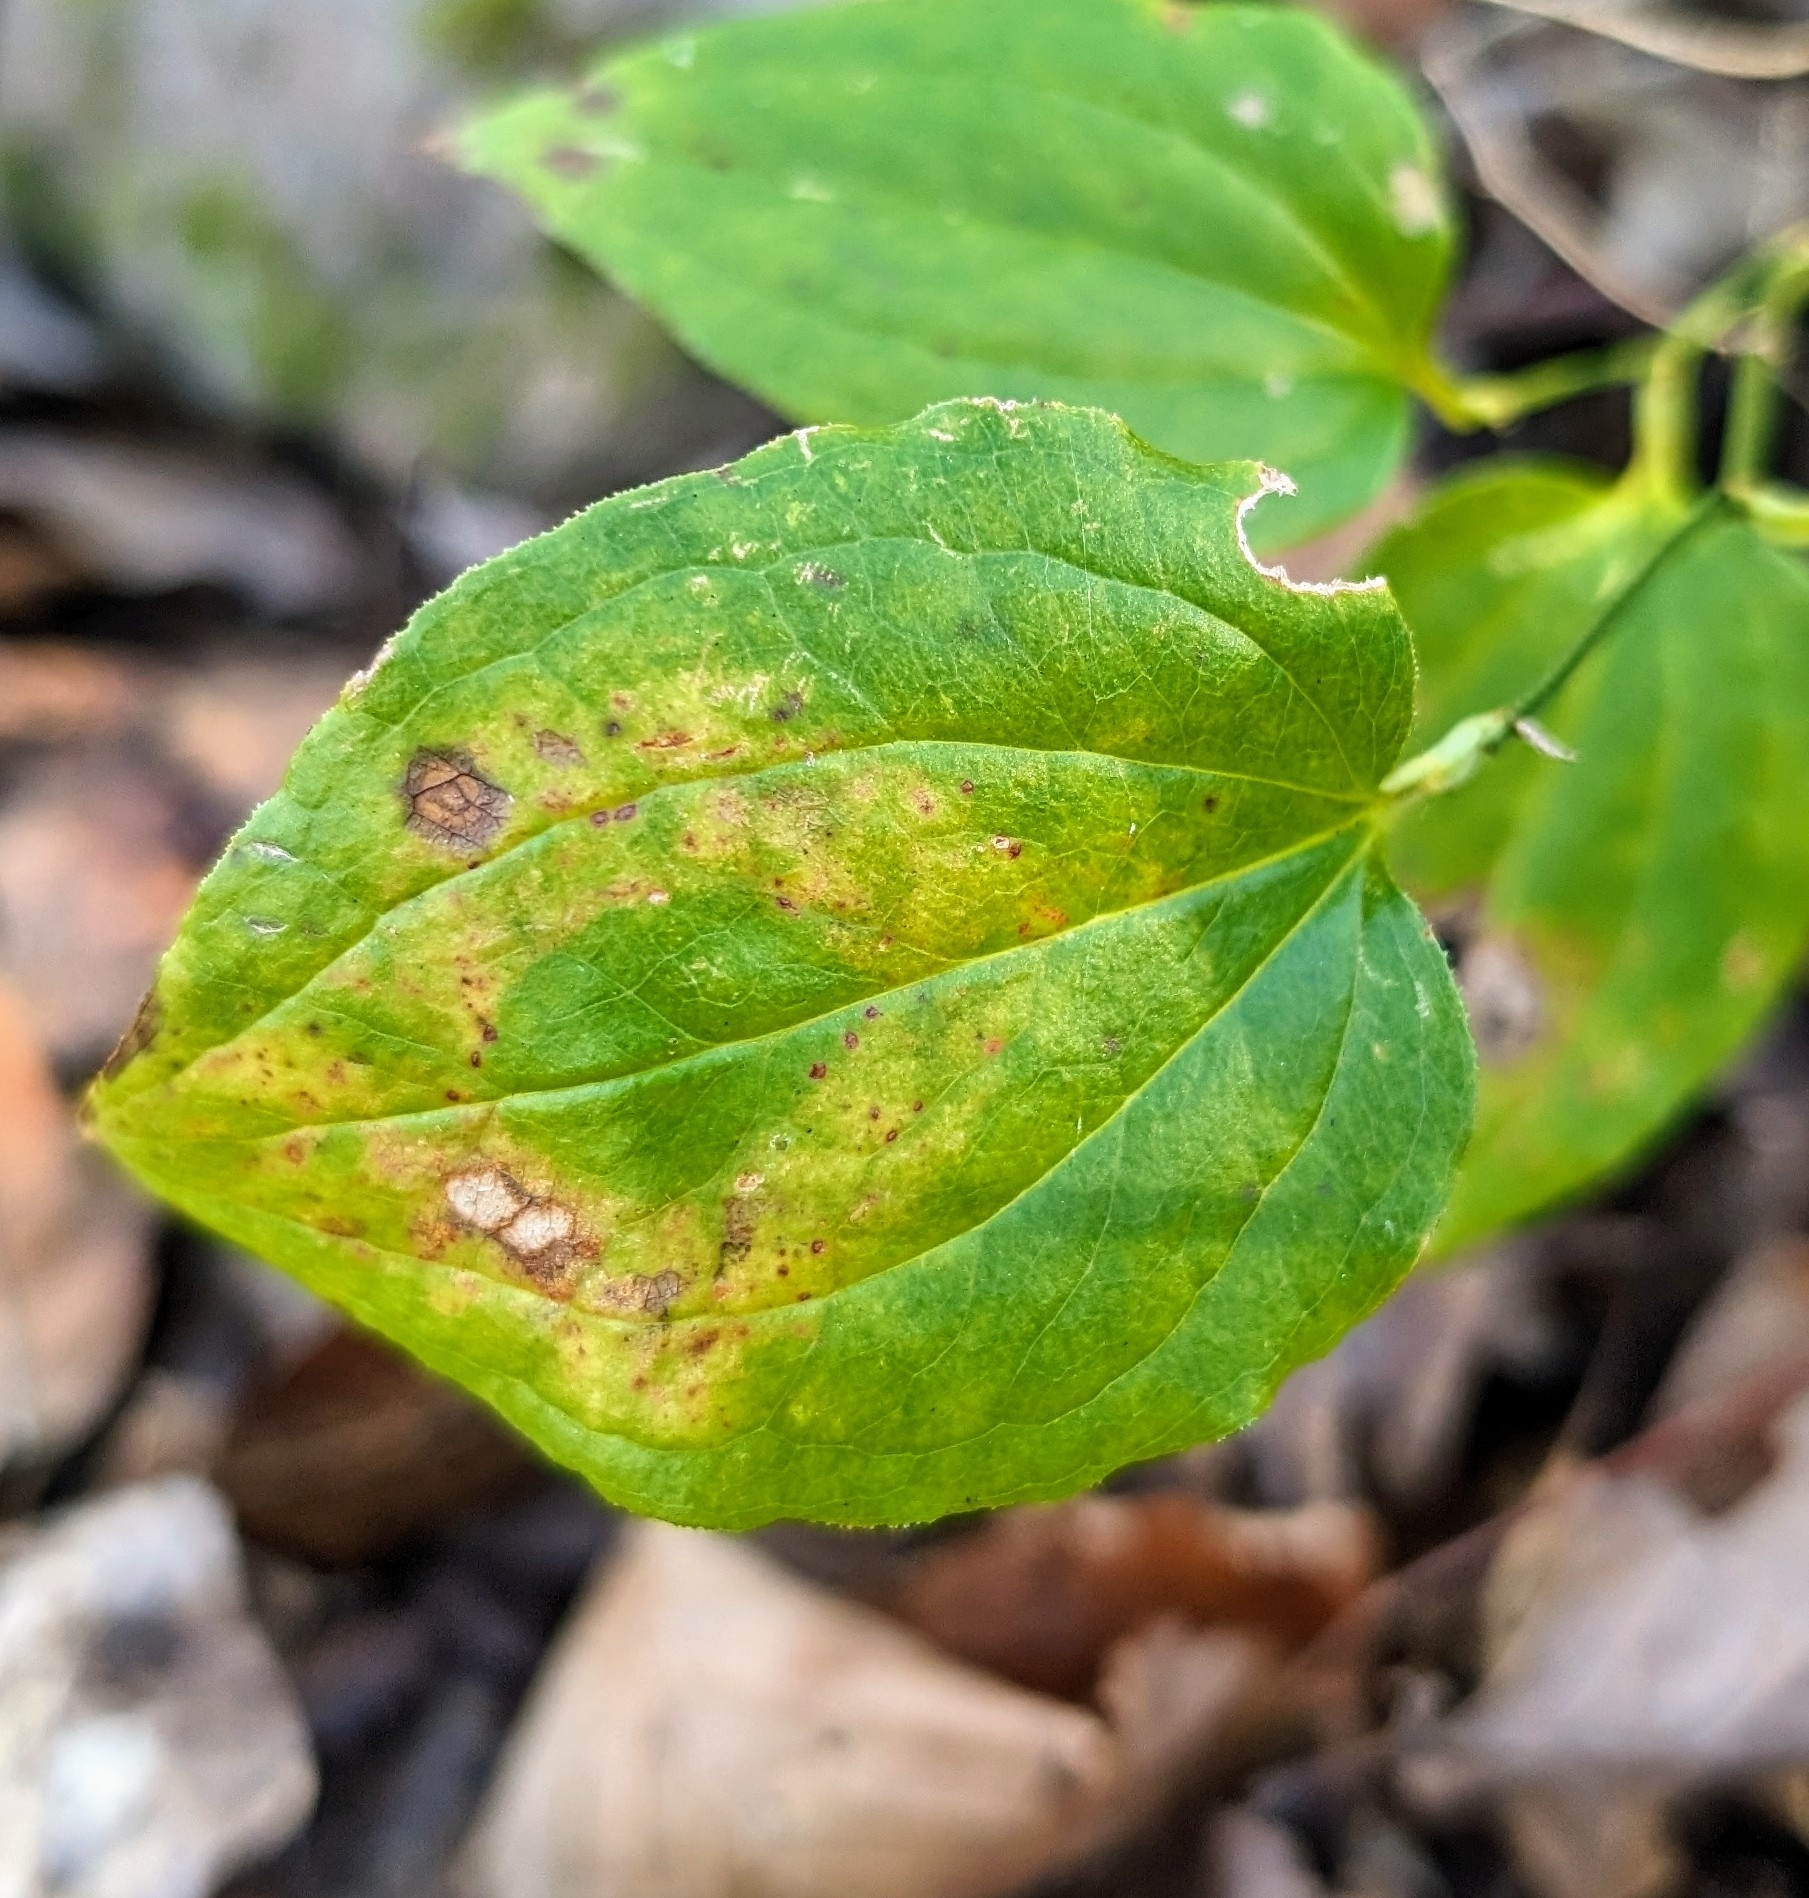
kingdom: Plantae
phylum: Tracheophyta
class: Liliopsida
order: Liliales
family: Smilacaceae
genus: Smilax
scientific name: Smilax tamnoides
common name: Hellfetter
